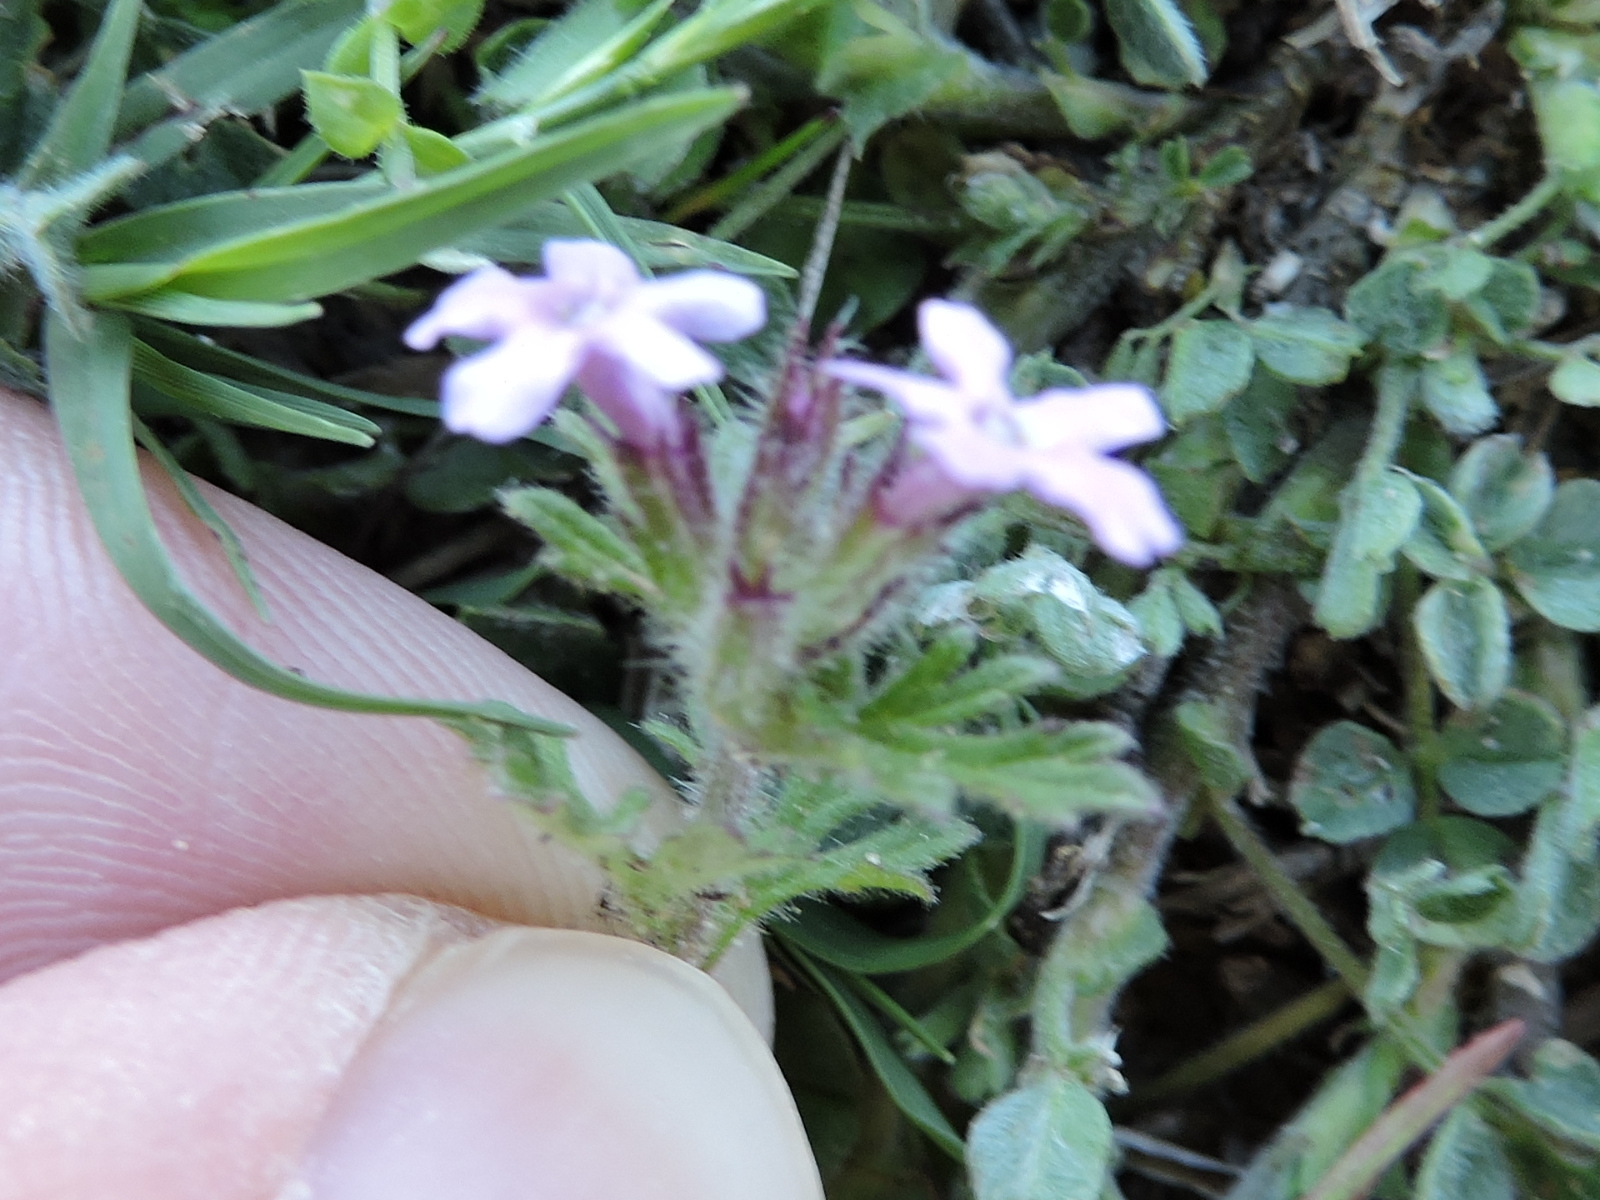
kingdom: Plantae
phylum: Tracheophyta
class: Magnoliopsida
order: Lamiales
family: Verbenaceae
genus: Verbena
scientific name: Verbena pumila
